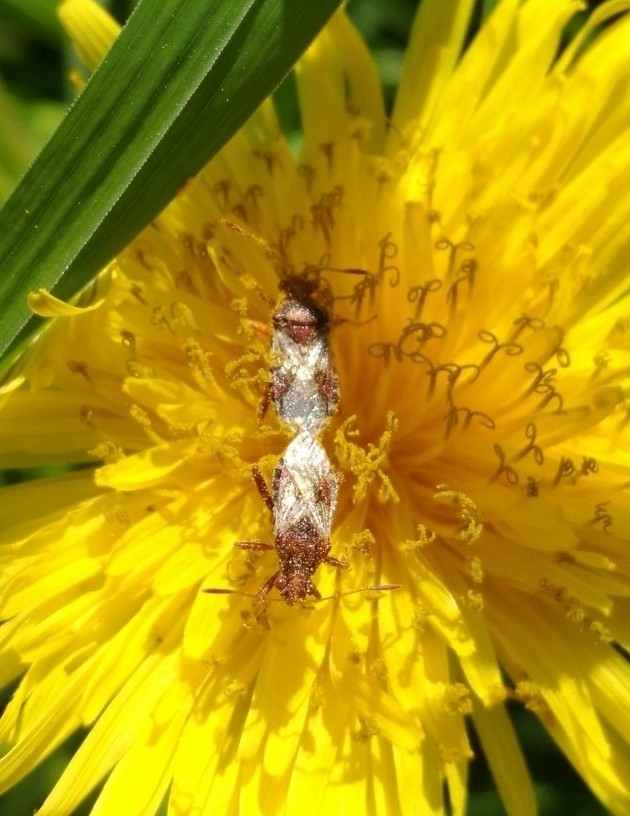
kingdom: Animalia
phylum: Arthropoda
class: Insecta
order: Hemiptera
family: Rhopalidae
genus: Rhopalus
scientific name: Rhopalus subrufus
